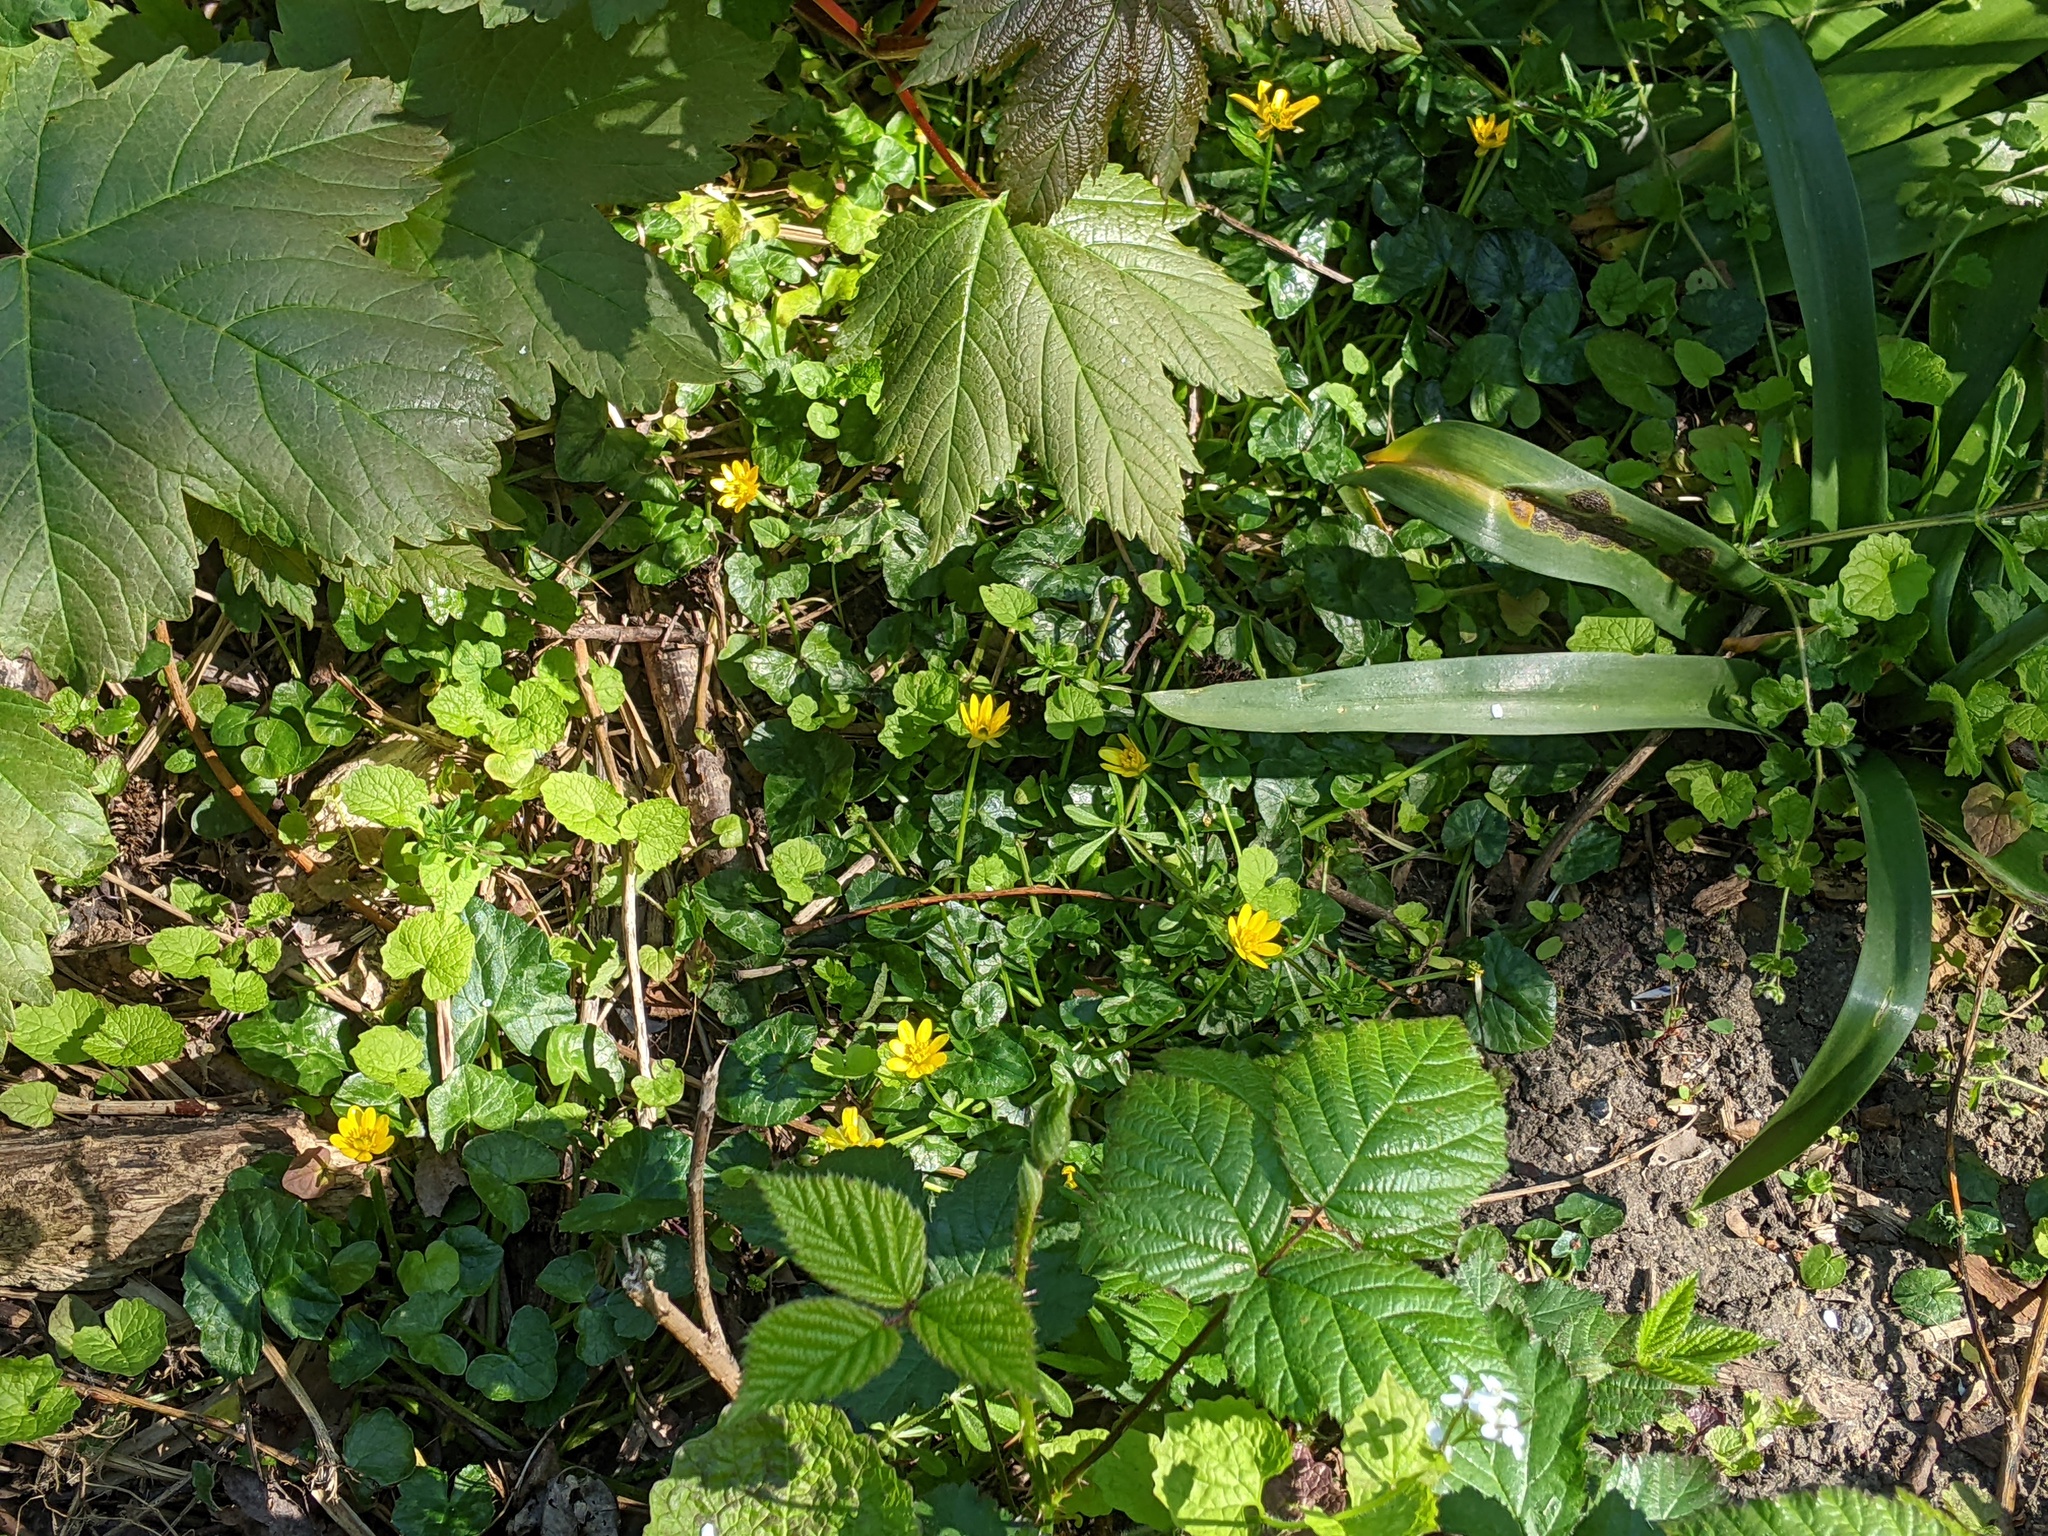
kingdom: Plantae
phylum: Tracheophyta
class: Magnoliopsida
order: Ranunculales
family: Ranunculaceae
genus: Ficaria
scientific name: Ficaria verna
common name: Lesser celandine
